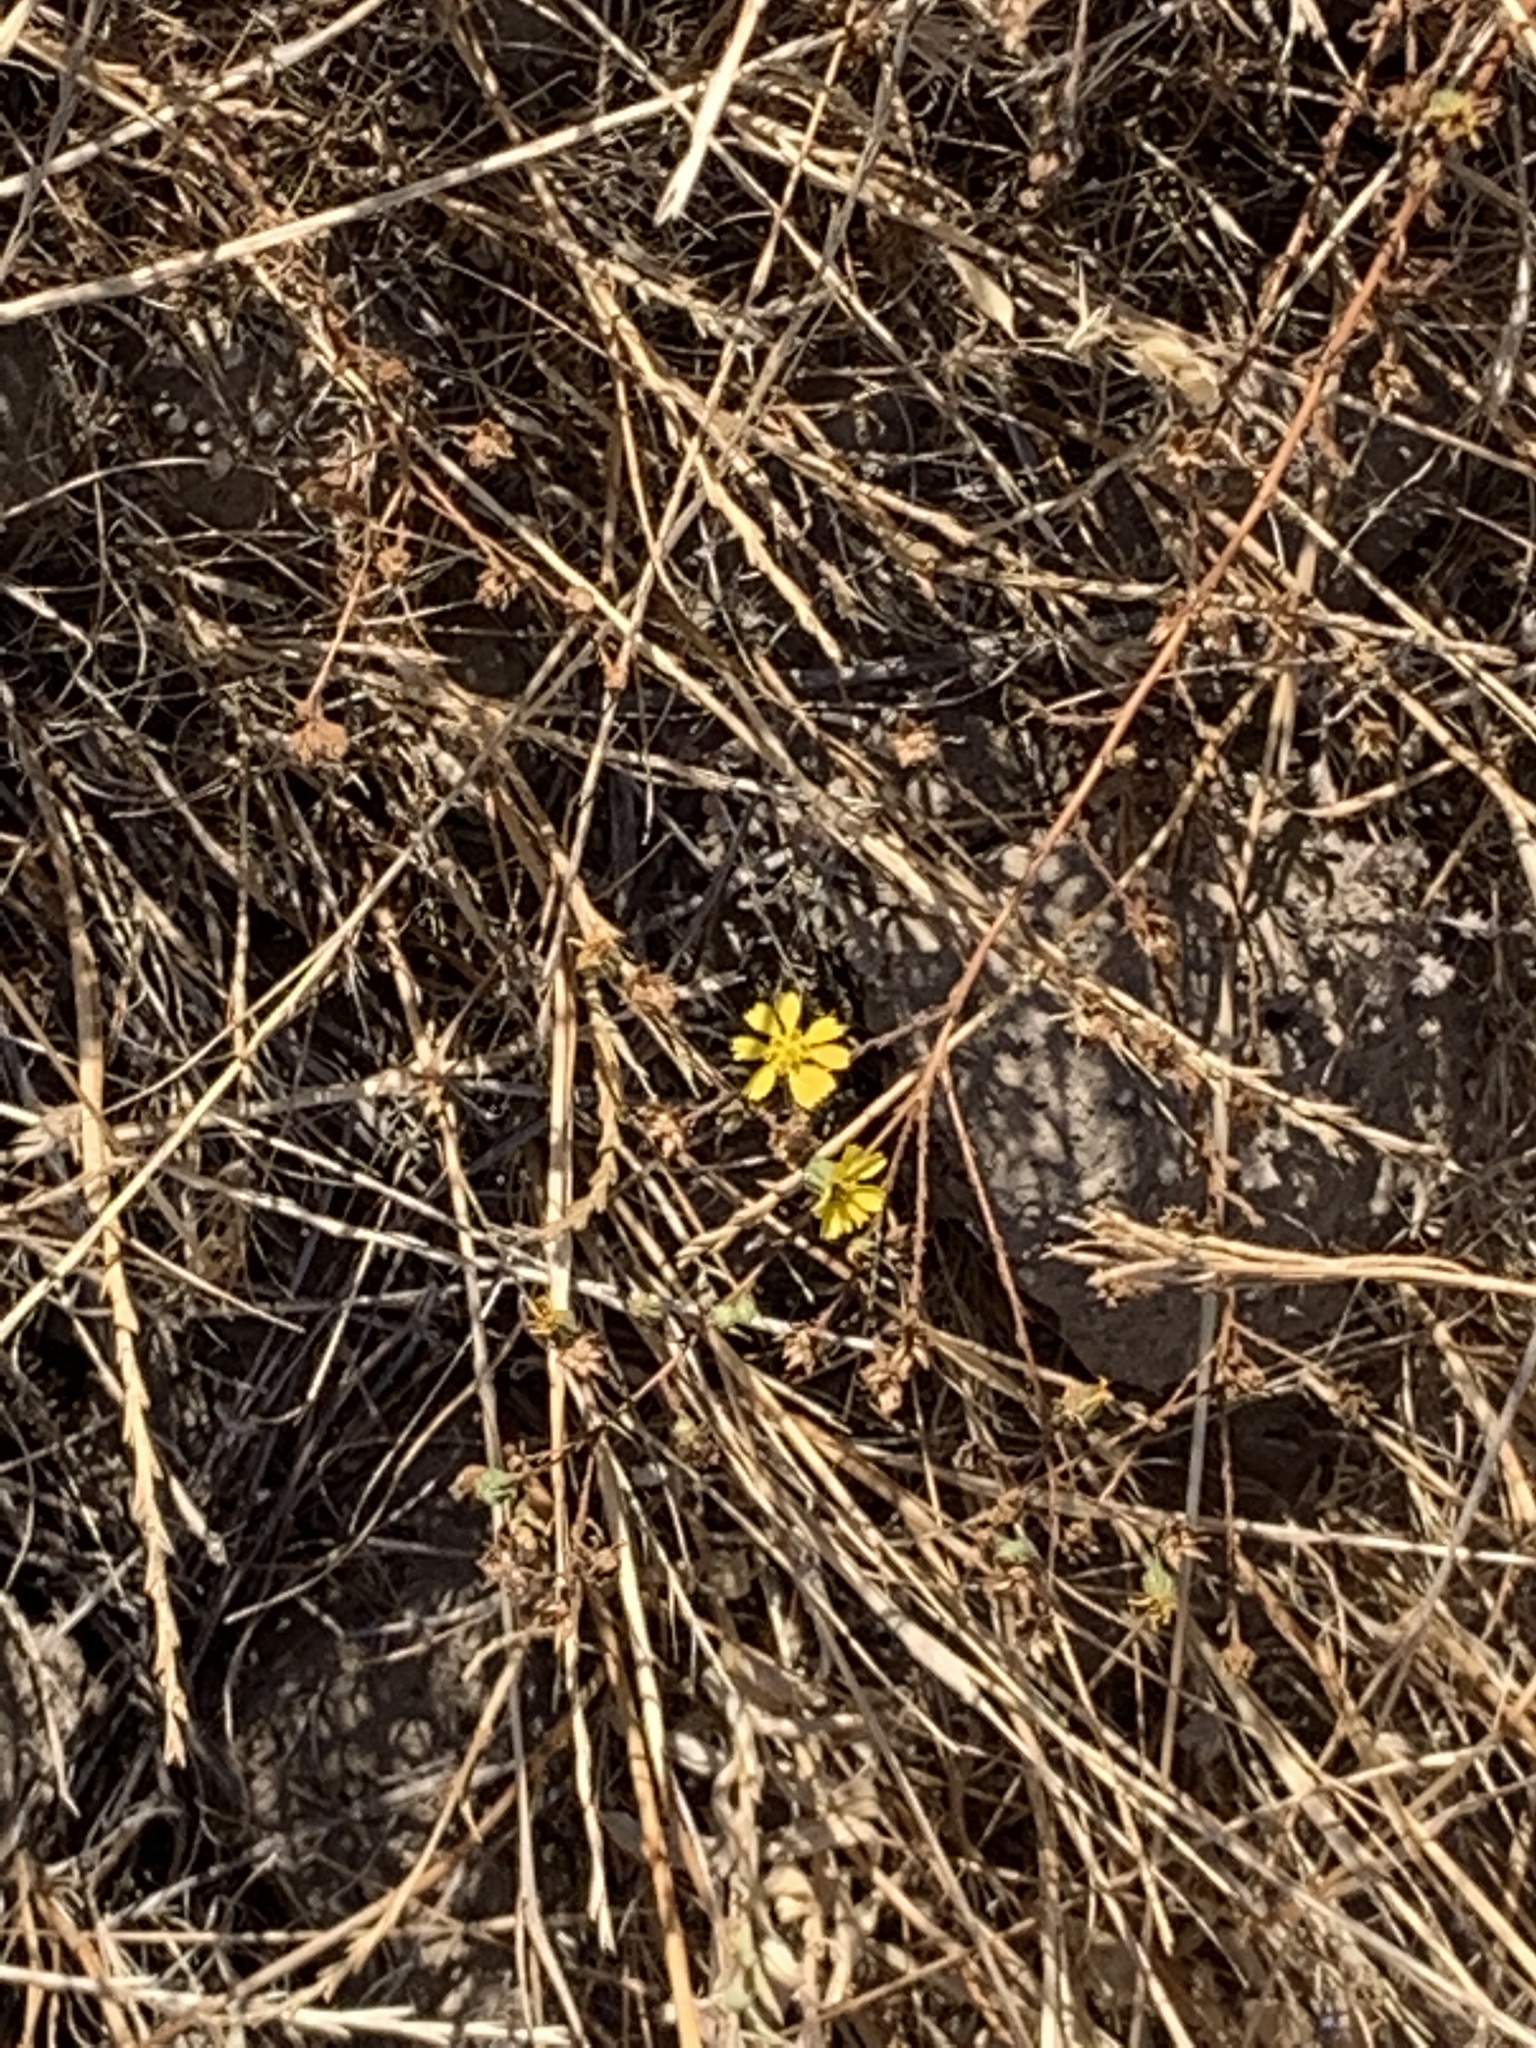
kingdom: Plantae
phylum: Tracheophyta
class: Magnoliopsida
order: Asterales
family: Asteraceae
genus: Deinandra
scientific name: Deinandra paniculata
